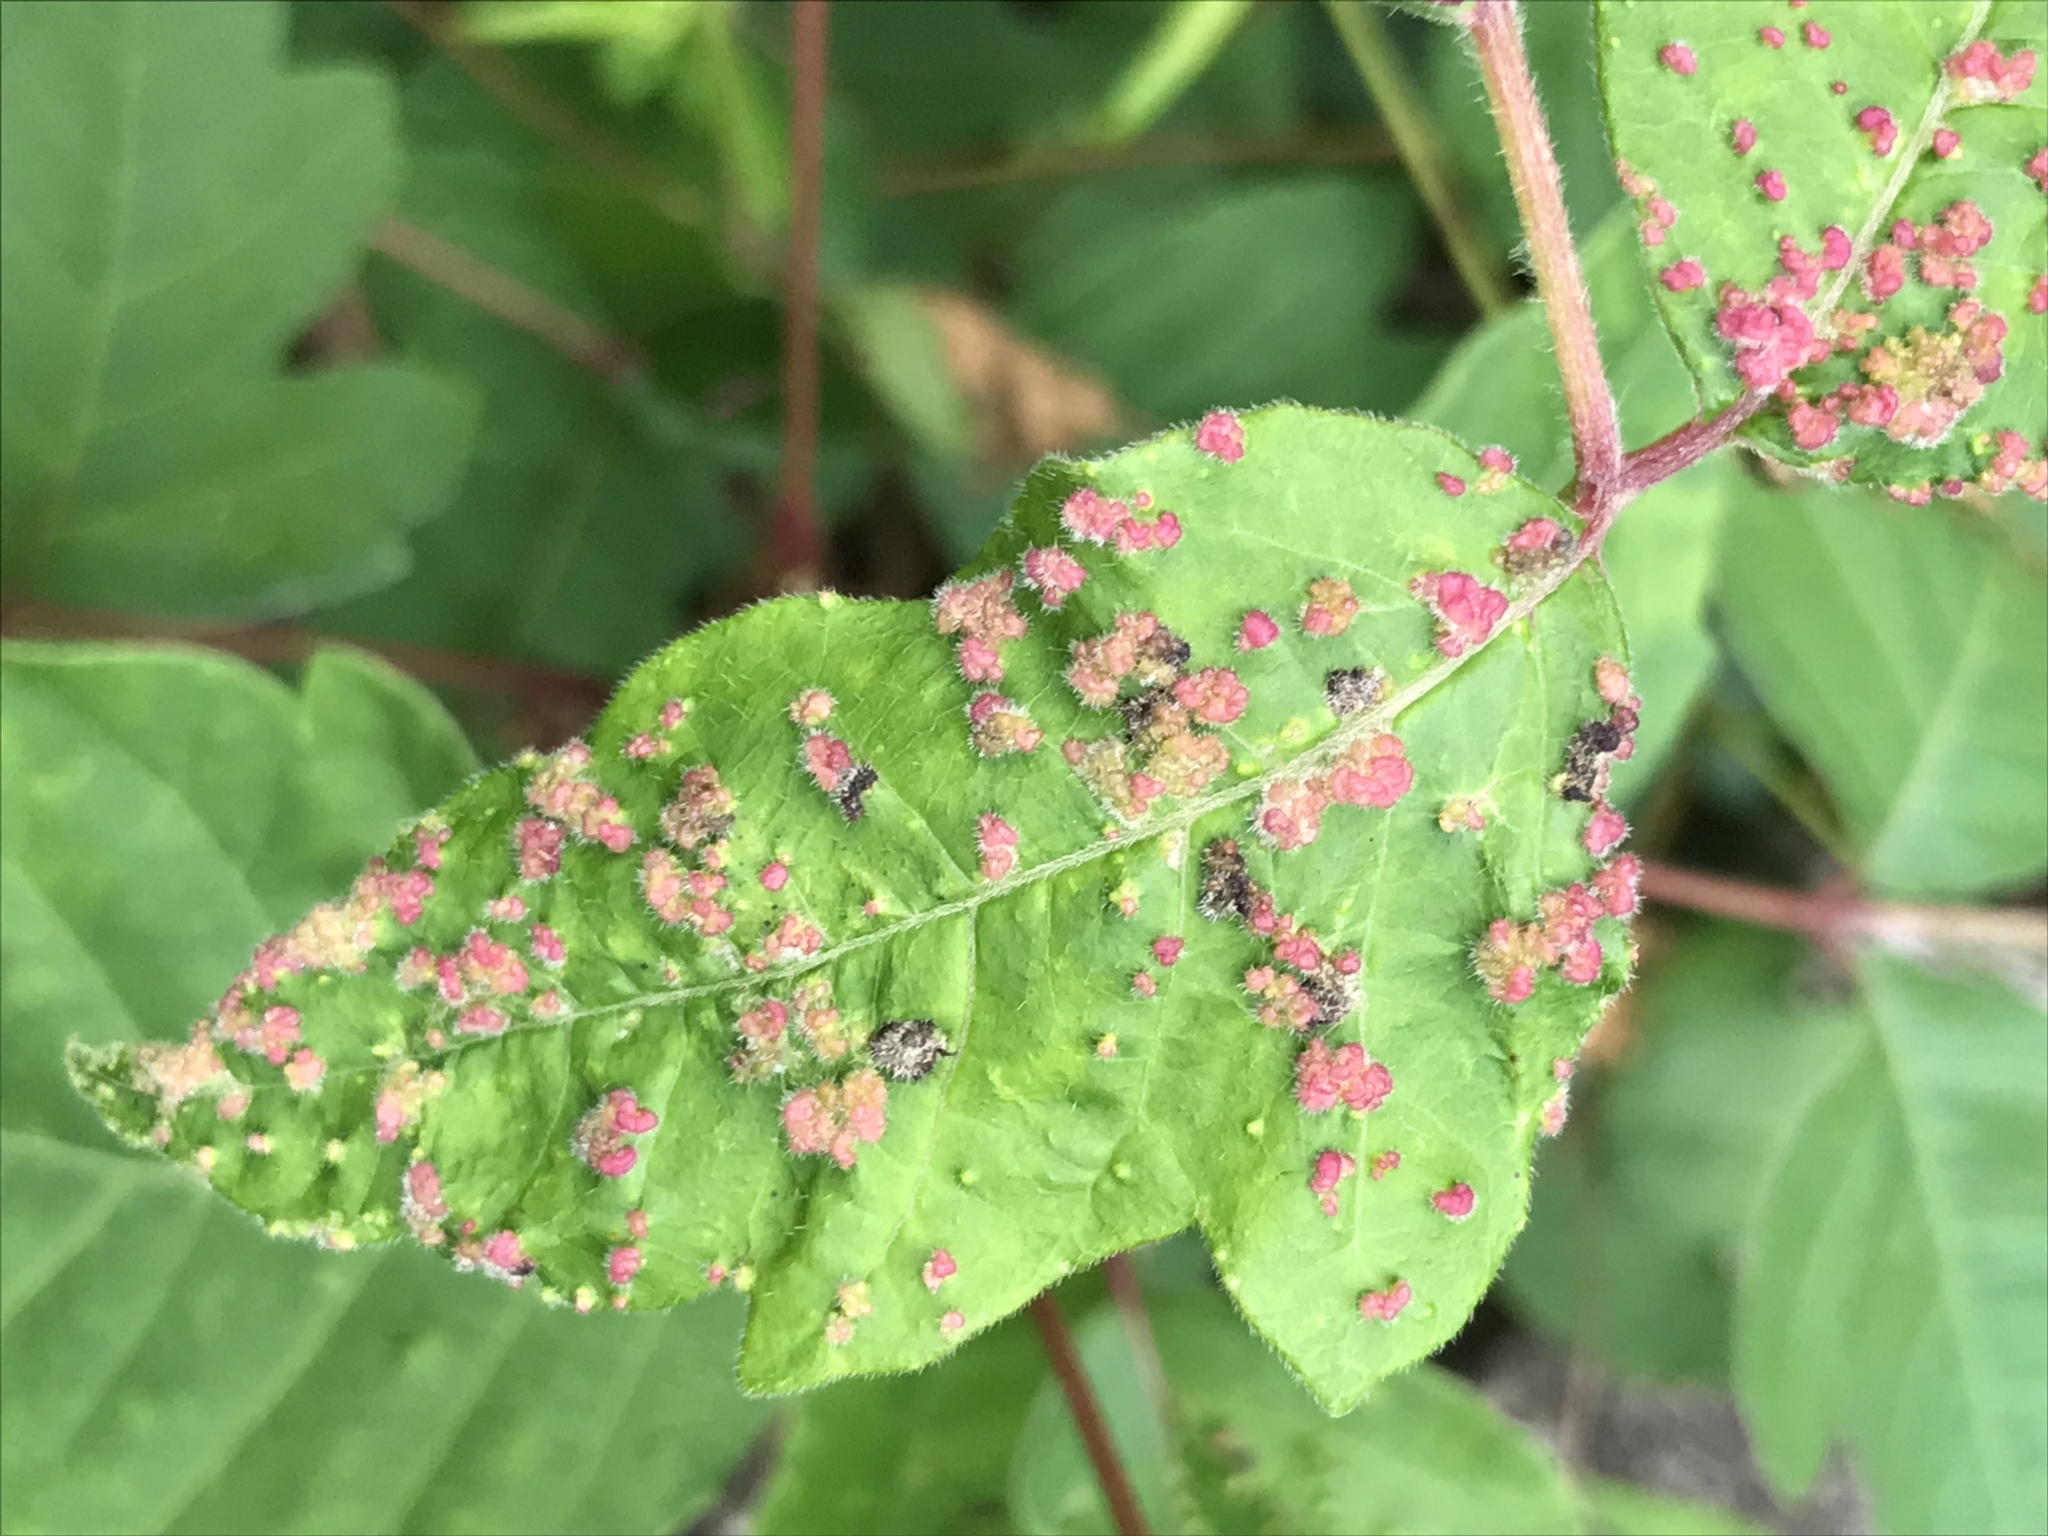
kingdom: Animalia
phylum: Arthropoda
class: Arachnida
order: Trombidiformes
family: Eriophyidae
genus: Aculops
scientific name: Aculops
